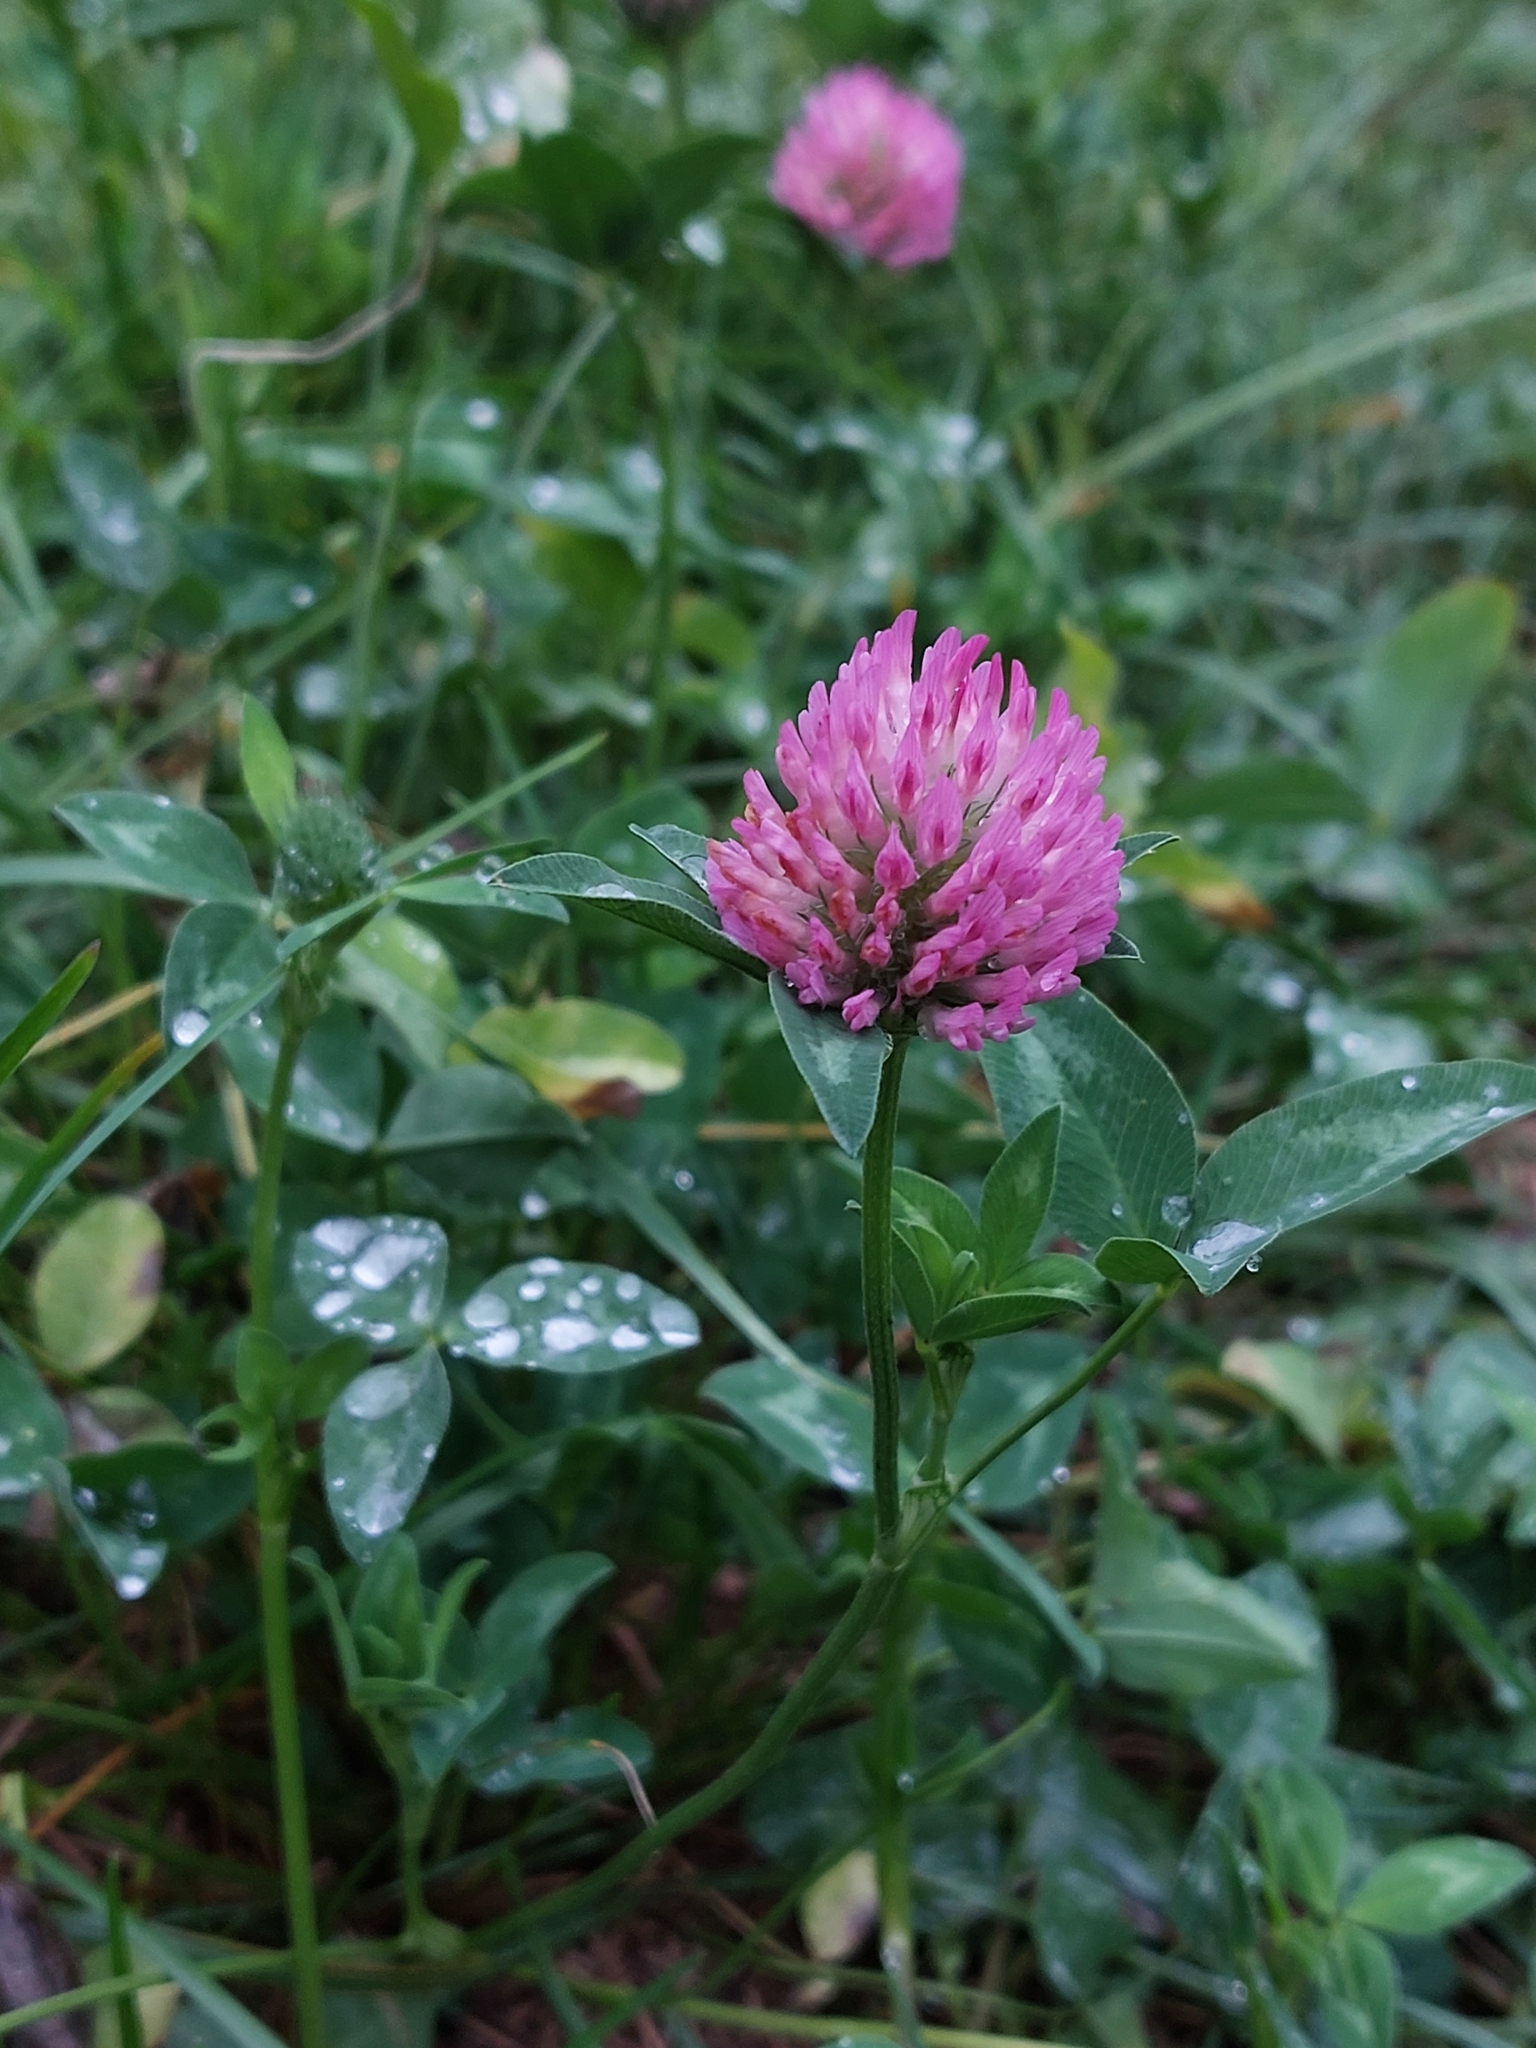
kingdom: Plantae
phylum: Tracheophyta
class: Magnoliopsida
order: Fabales
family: Fabaceae
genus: Trifolium
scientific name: Trifolium pratense
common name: Red clover
